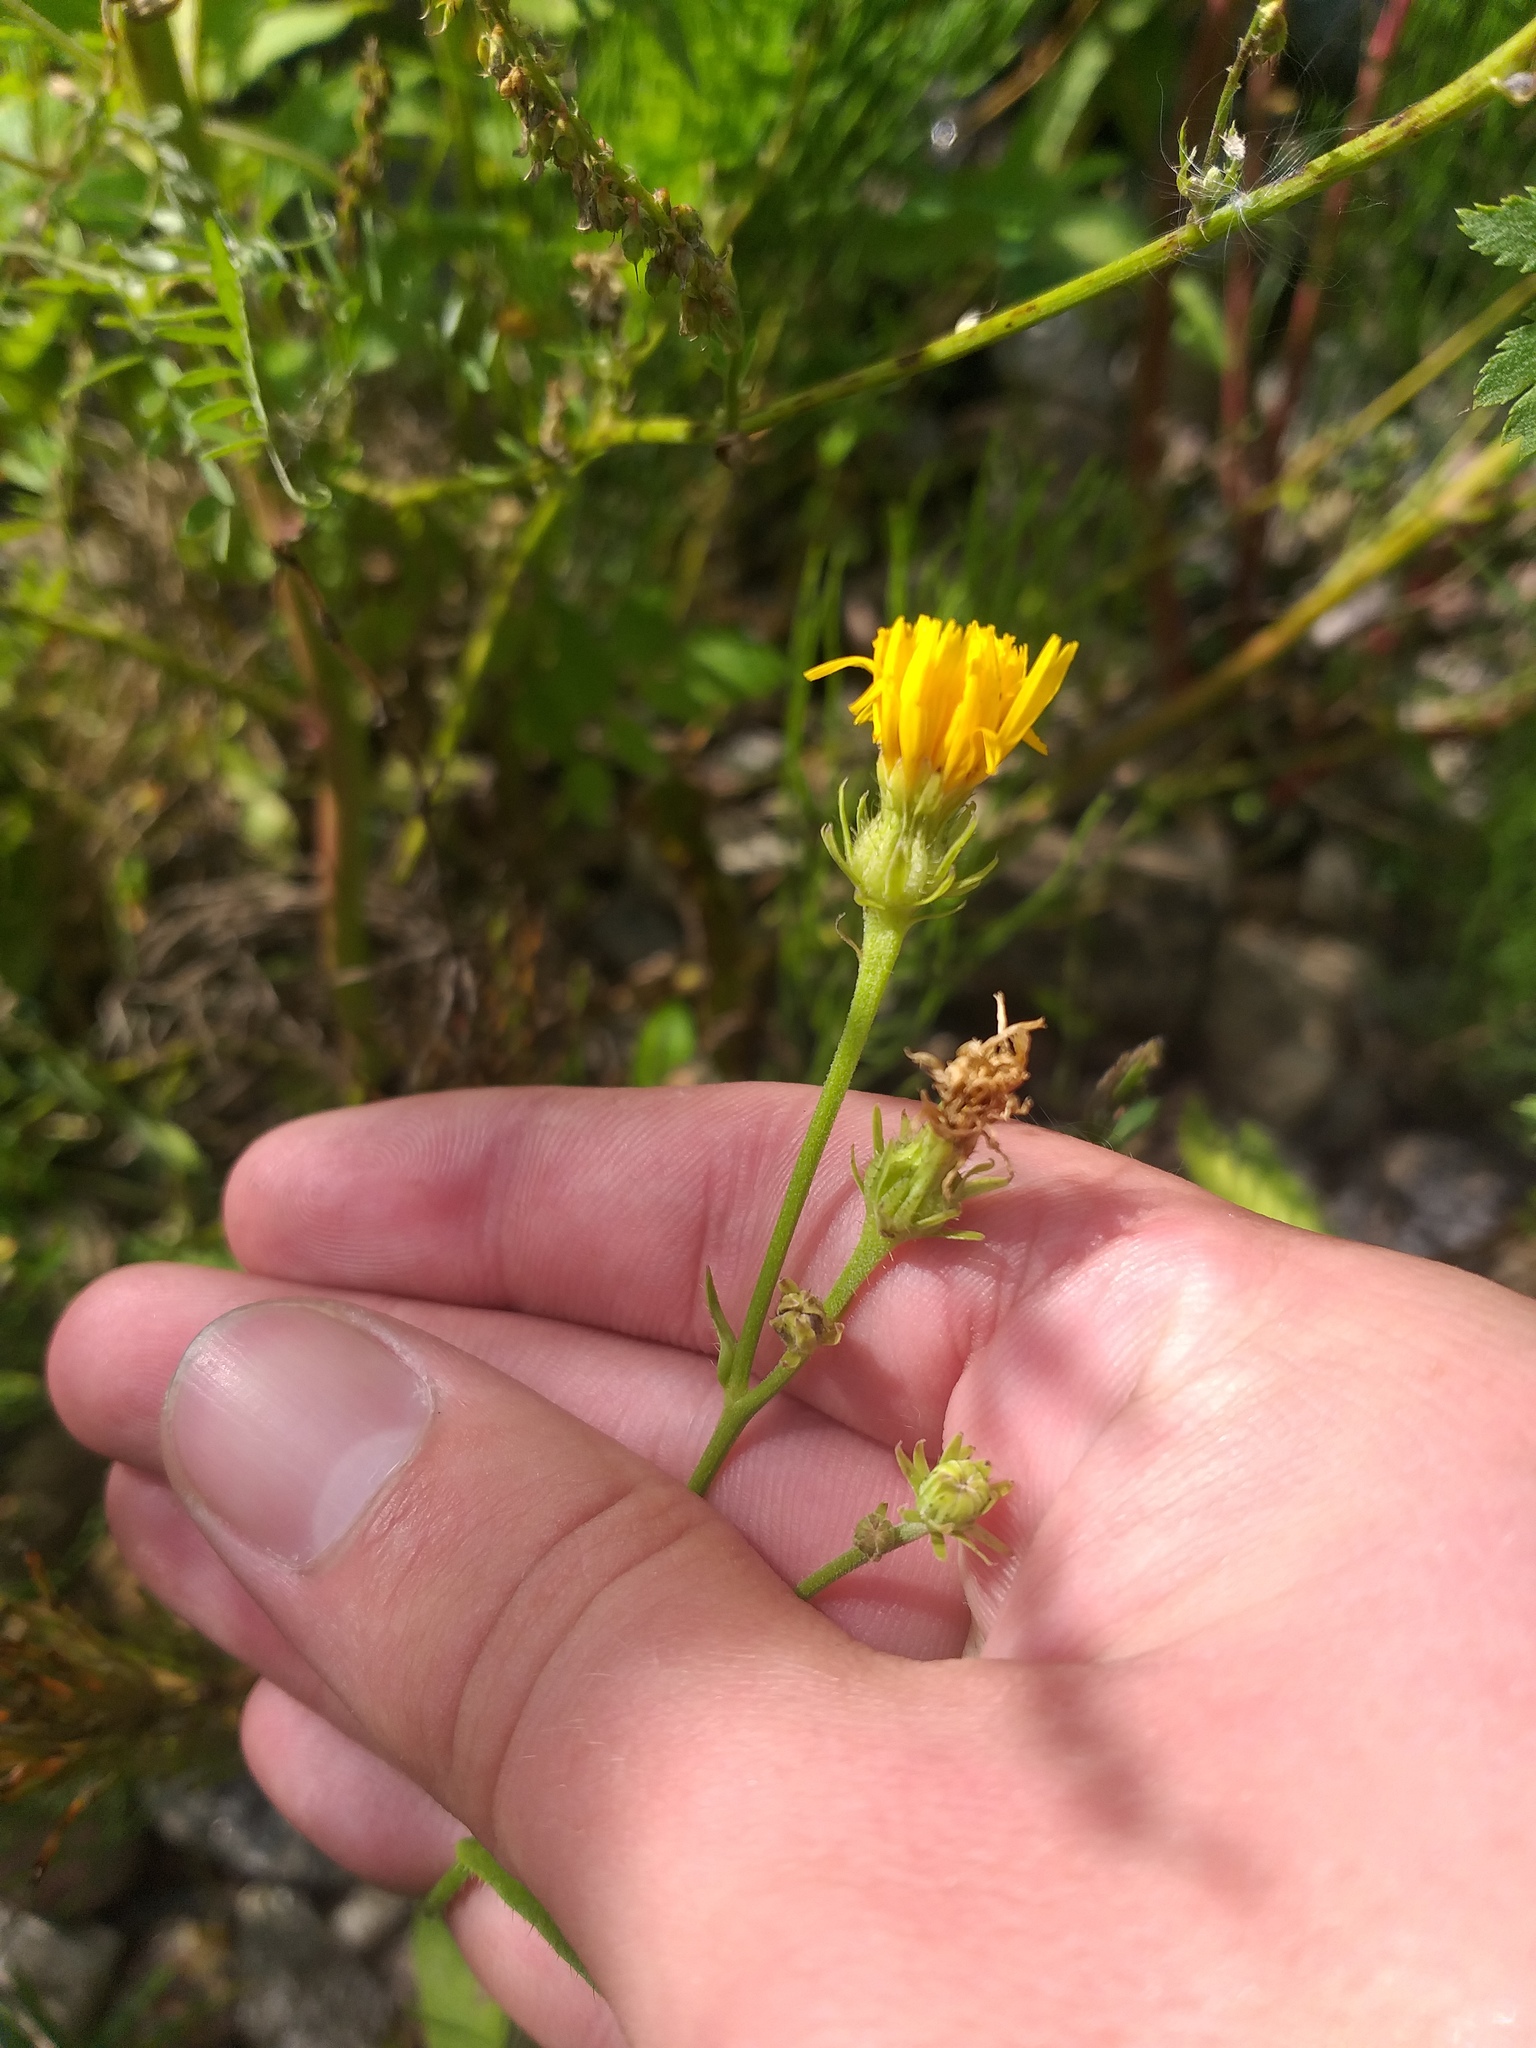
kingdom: Plantae
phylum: Tracheophyta
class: Magnoliopsida
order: Asterales
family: Asteraceae
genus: Picris
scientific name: Picris hieracioides
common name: Hawkweed oxtongue
